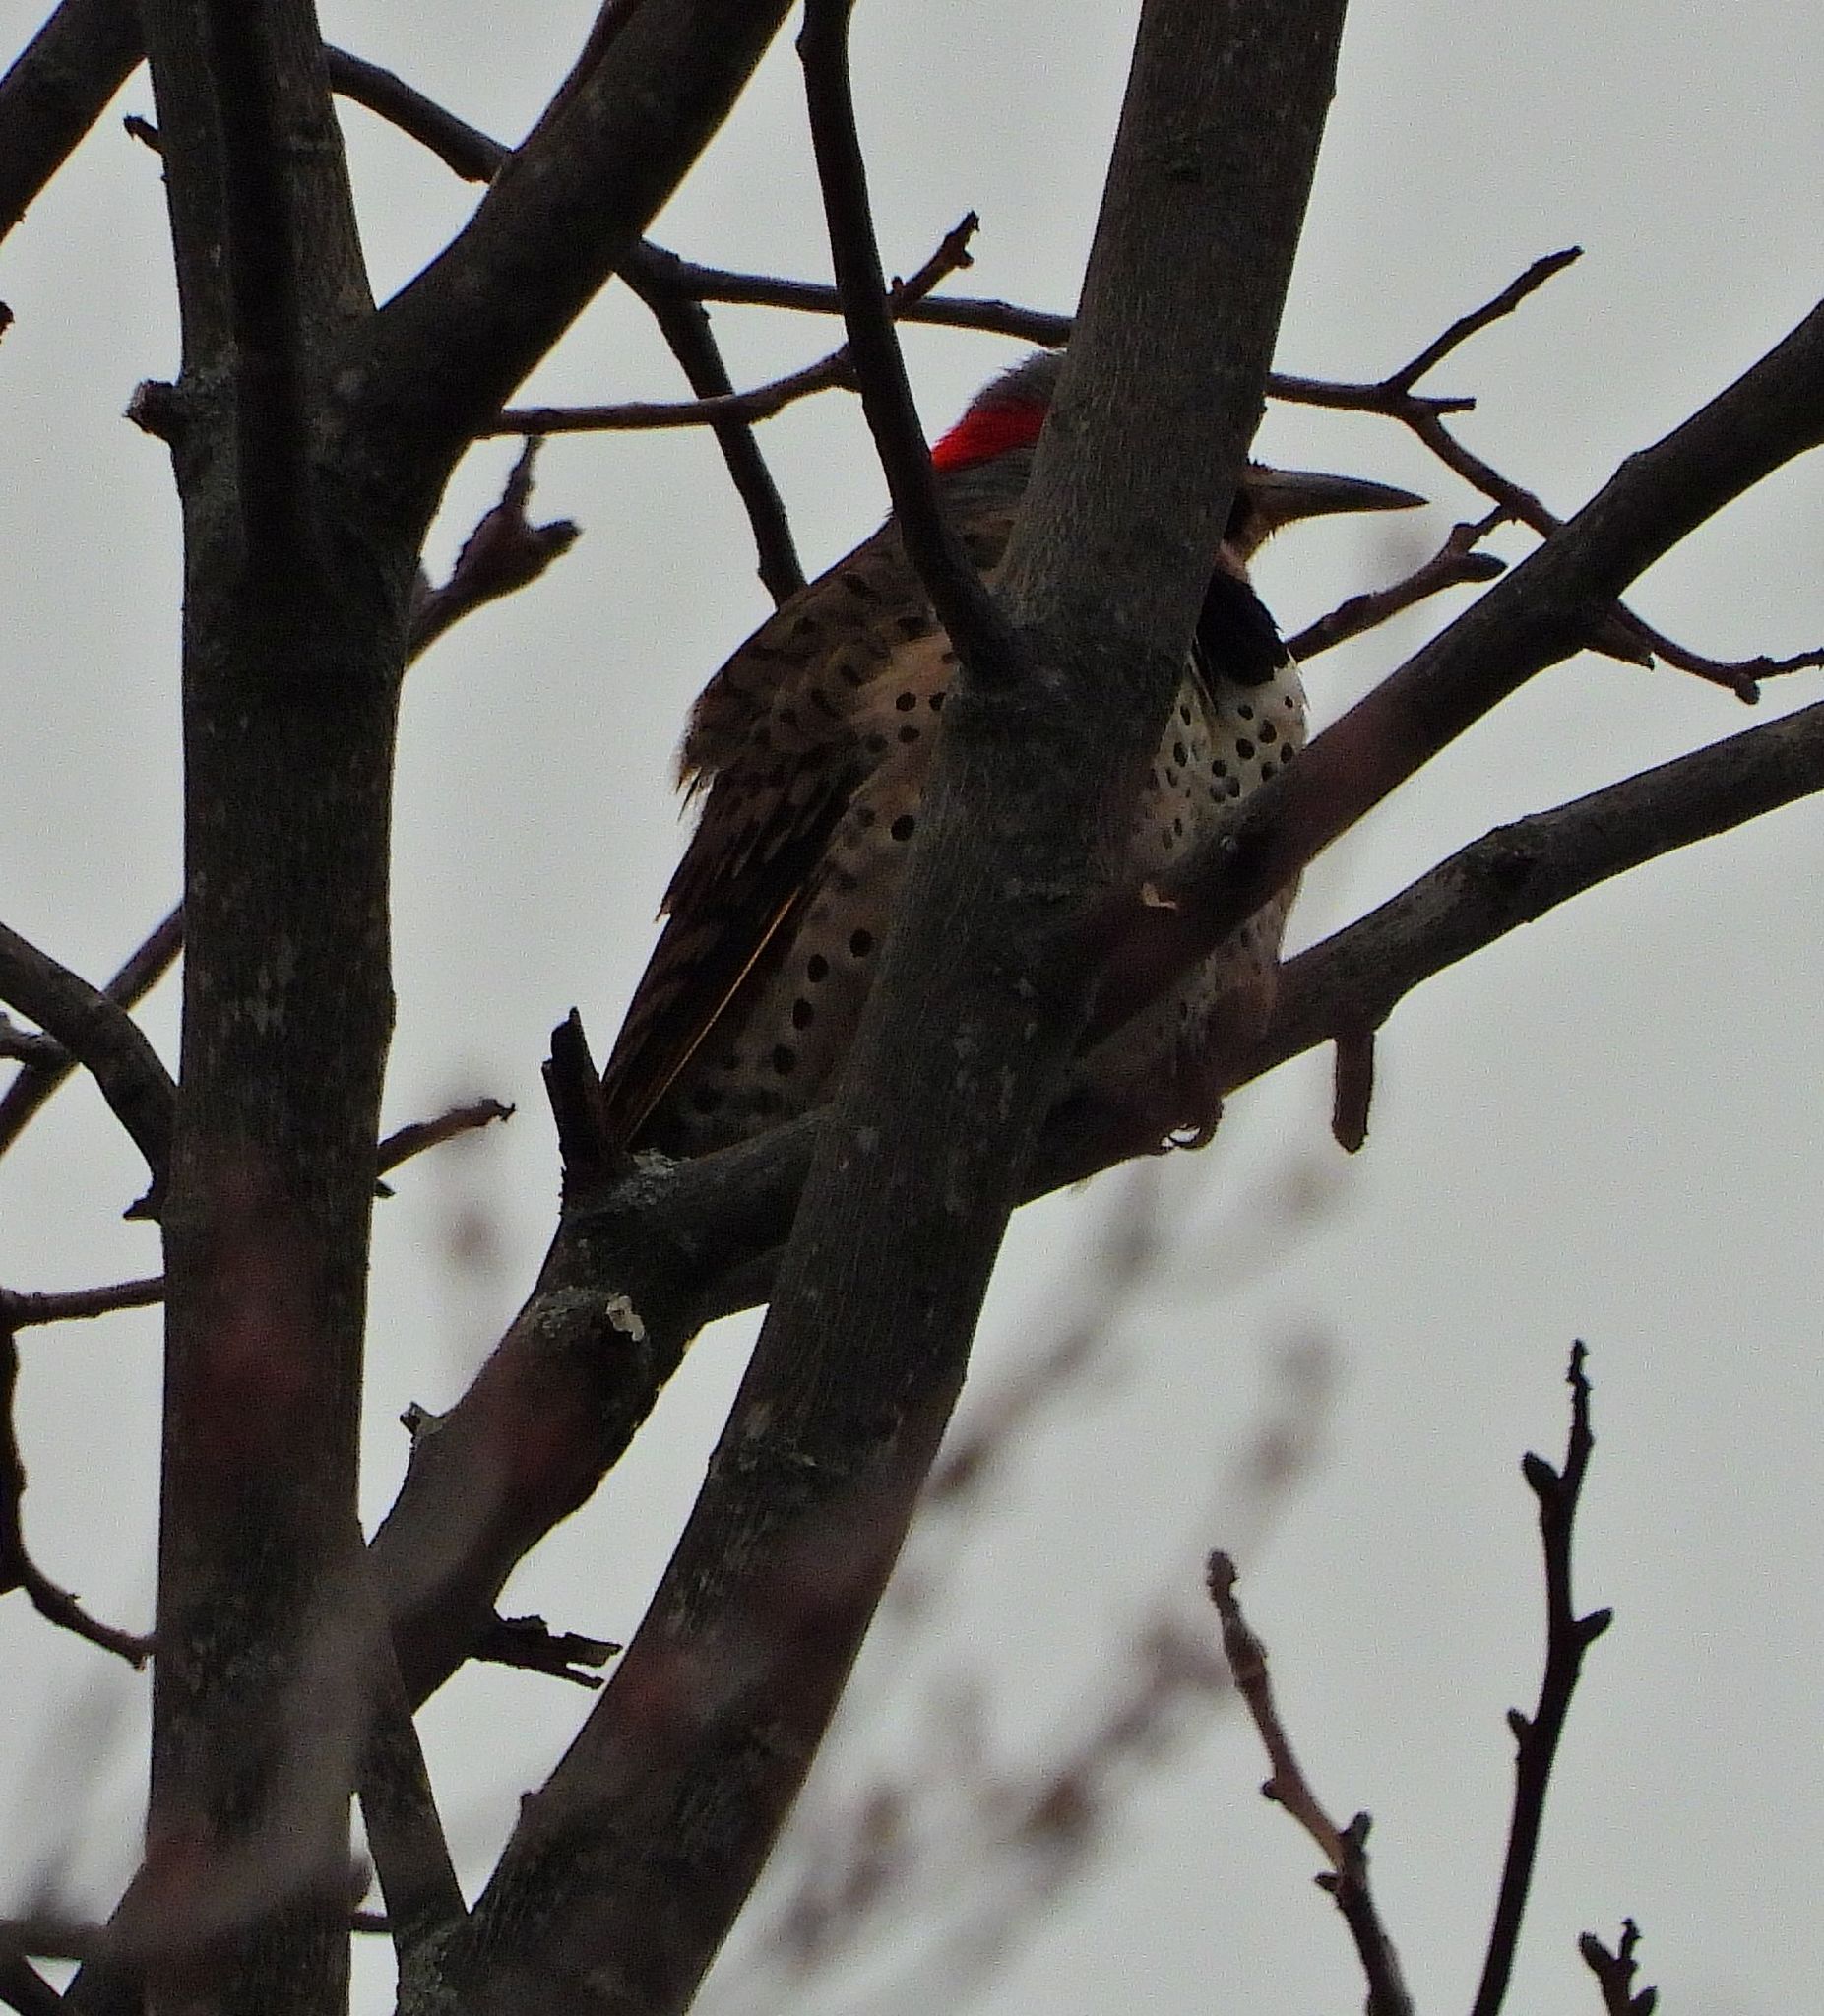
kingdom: Animalia
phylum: Chordata
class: Aves
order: Piciformes
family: Picidae
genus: Colaptes
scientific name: Colaptes auratus
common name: Northern flicker
